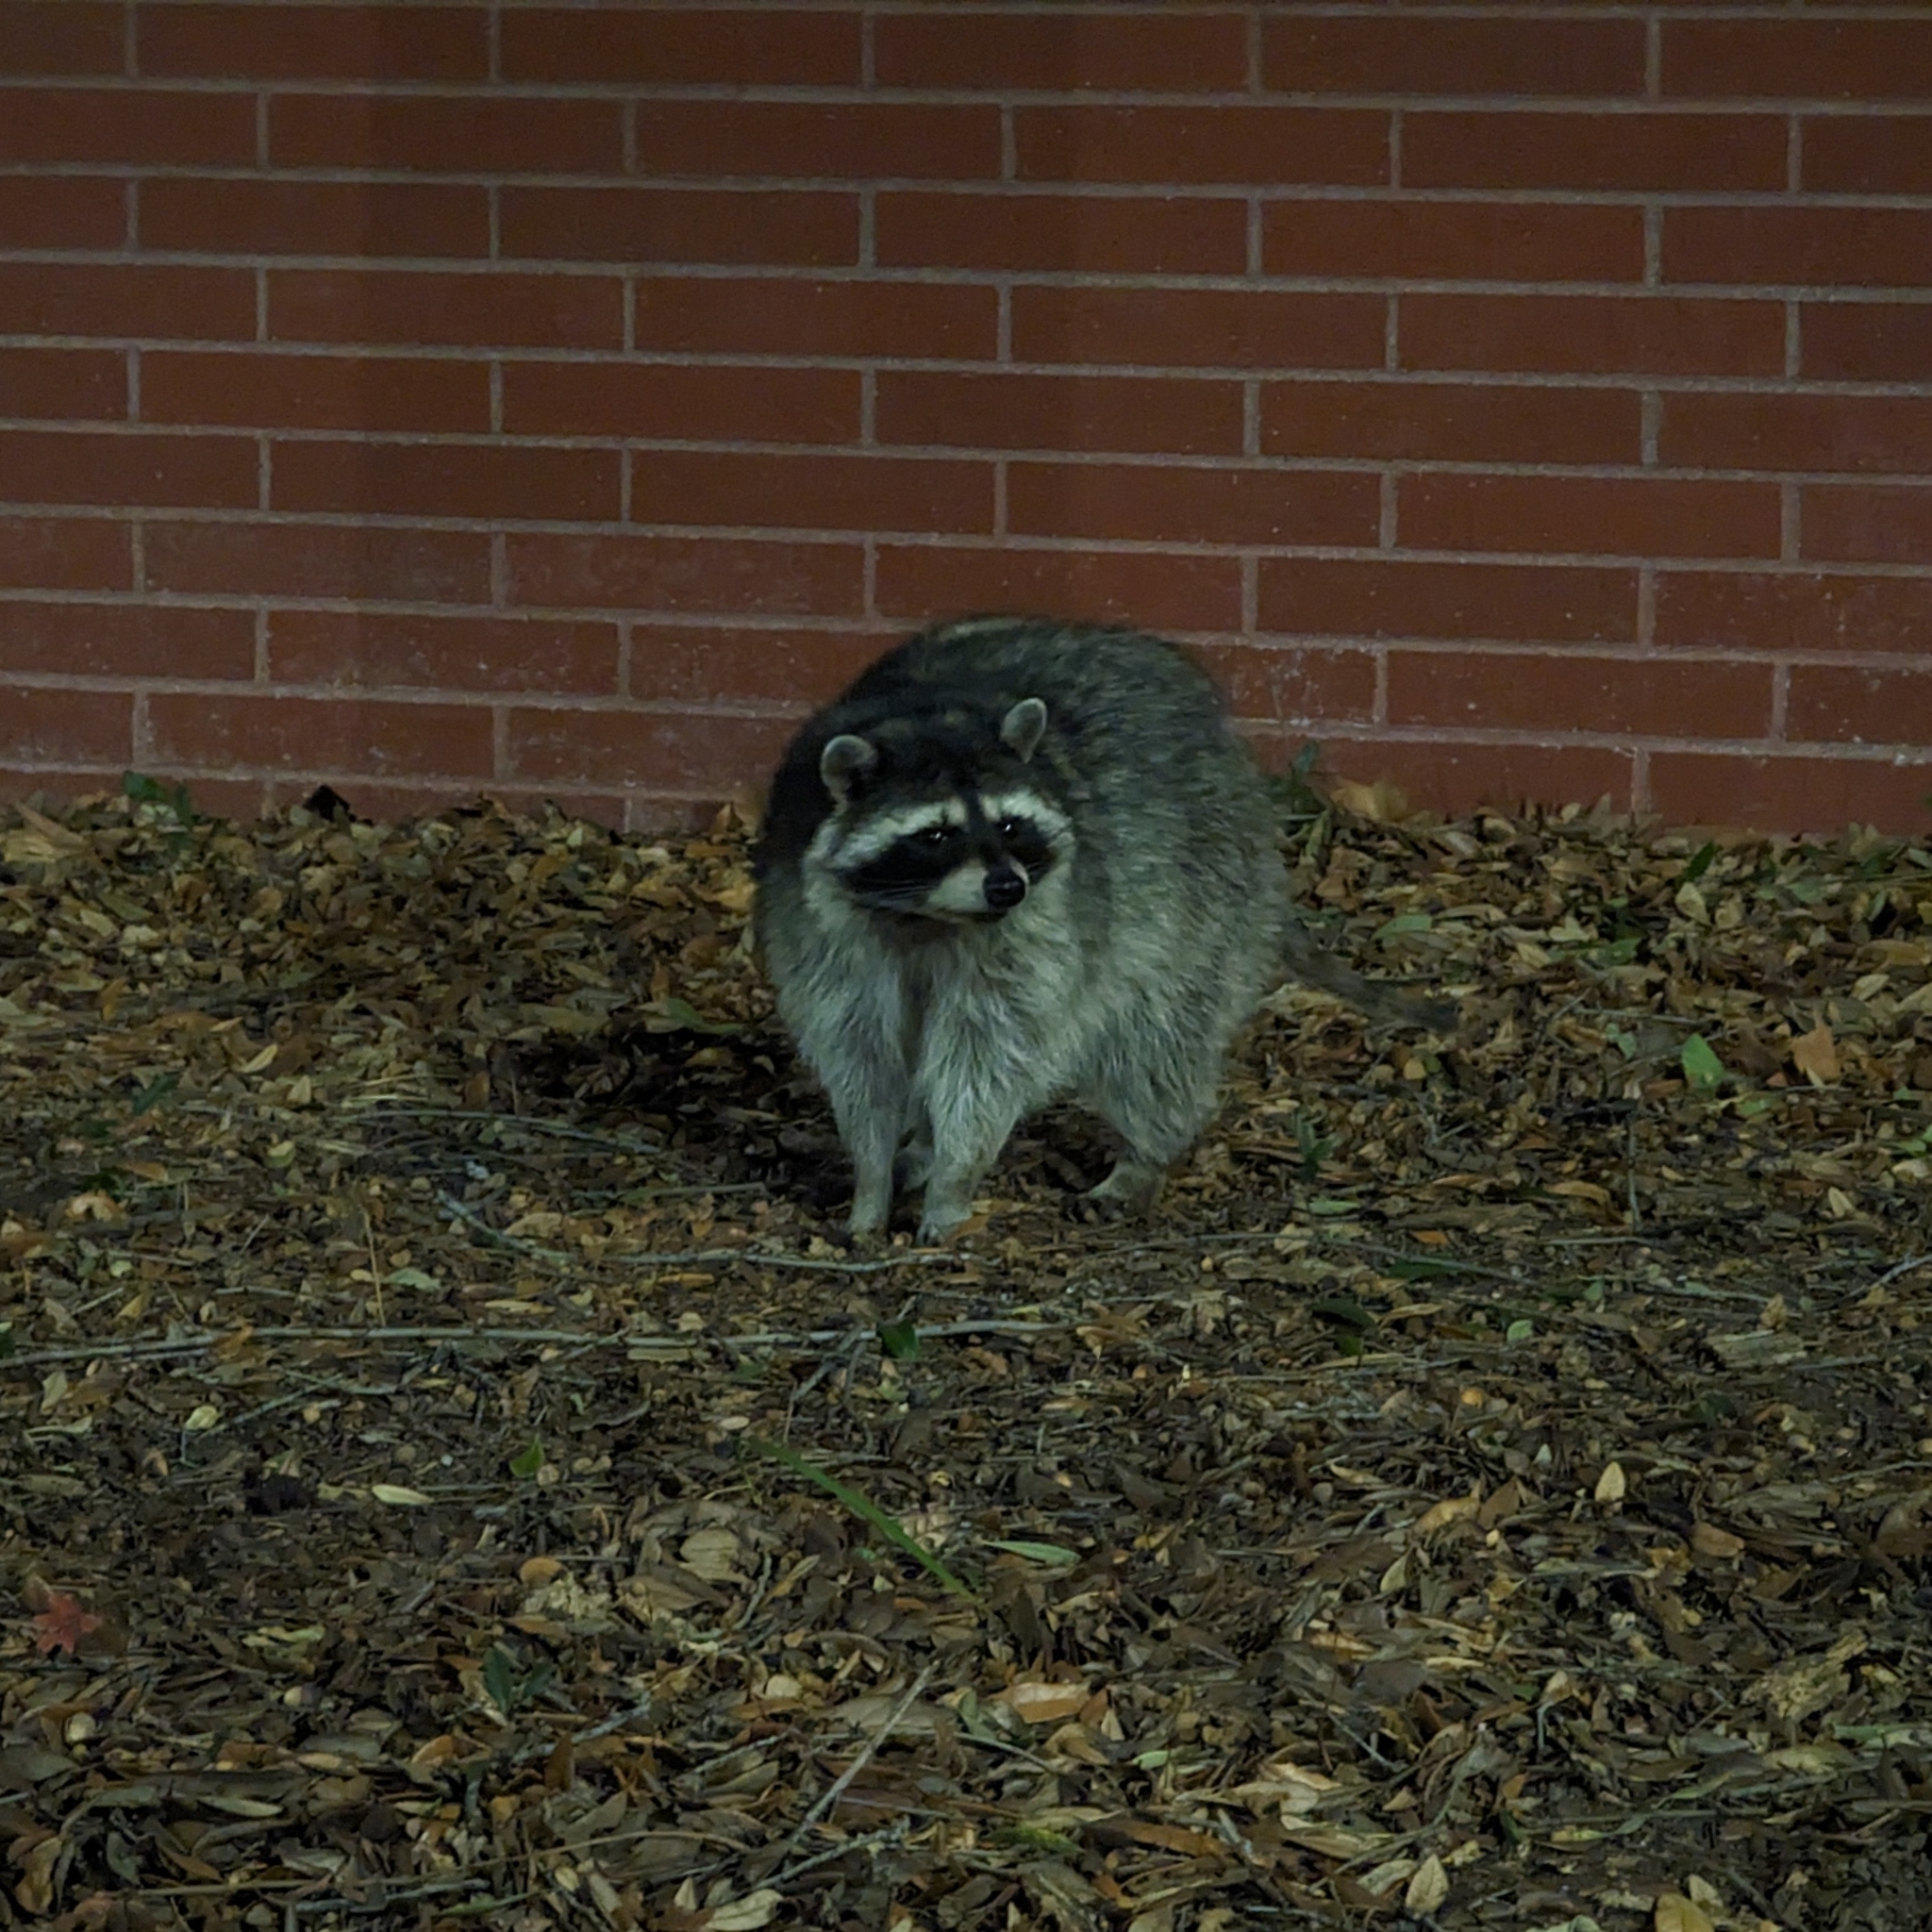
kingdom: Animalia
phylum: Chordata
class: Mammalia
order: Carnivora
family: Procyonidae
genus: Procyon
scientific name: Procyon lotor
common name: Raccoon
